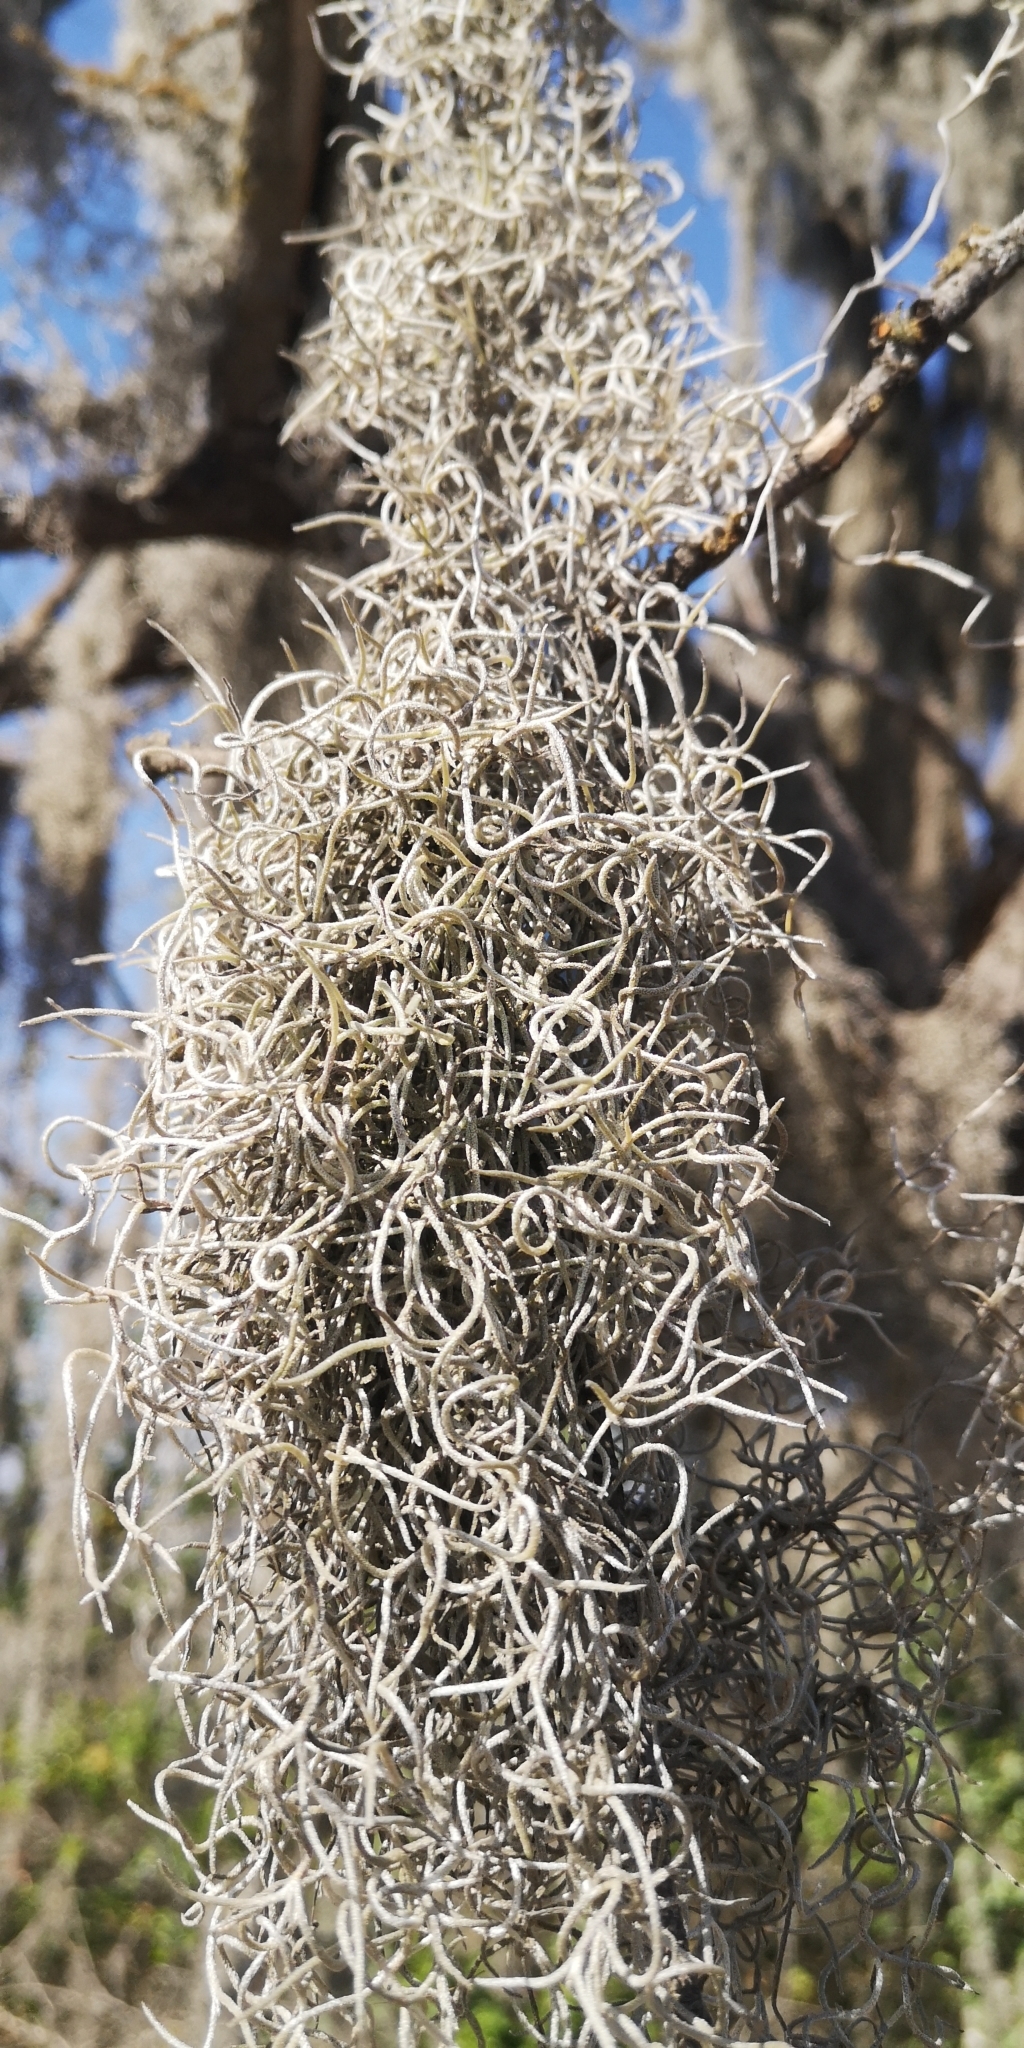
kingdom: Plantae
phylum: Tracheophyta
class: Liliopsida
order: Poales
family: Bromeliaceae
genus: Tillandsia
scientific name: Tillandsia usneoides
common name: Spanish moss
